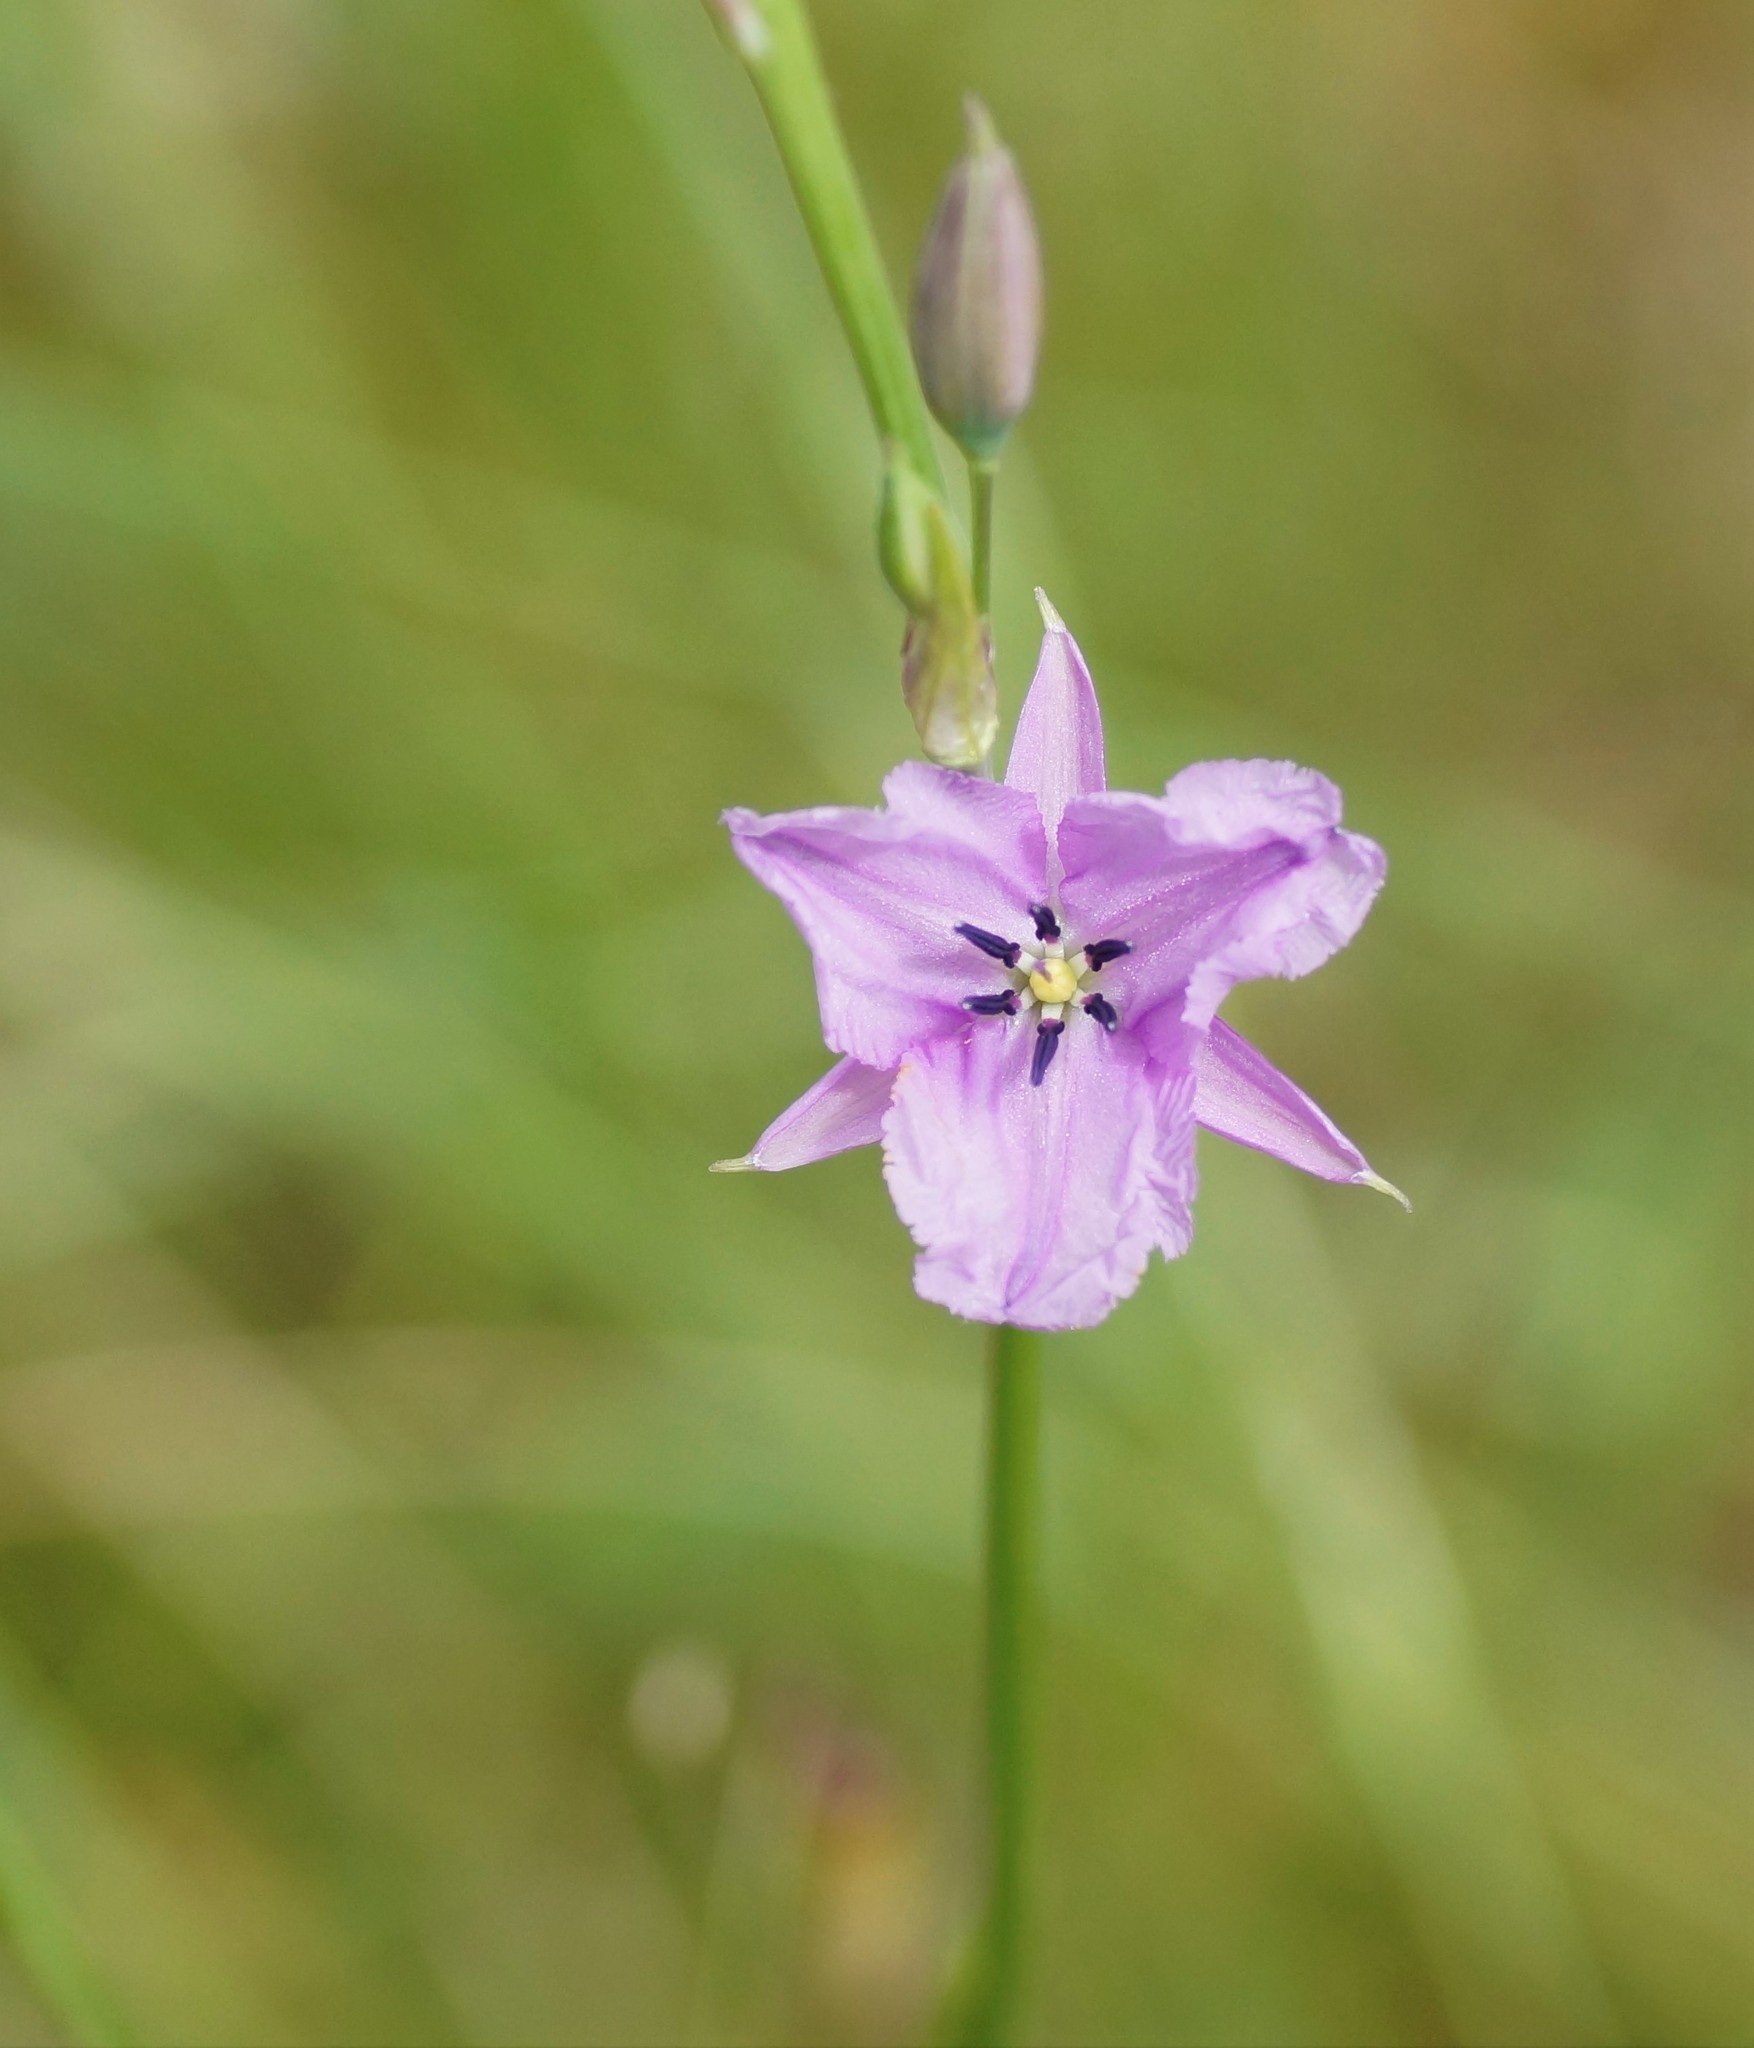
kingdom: Plantae
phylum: Tracheophyta
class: Liliopsida
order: Asparagales
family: Asparagaceae
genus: Arthropodium
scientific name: Arthropodium strictum
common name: Chocolate-lily
